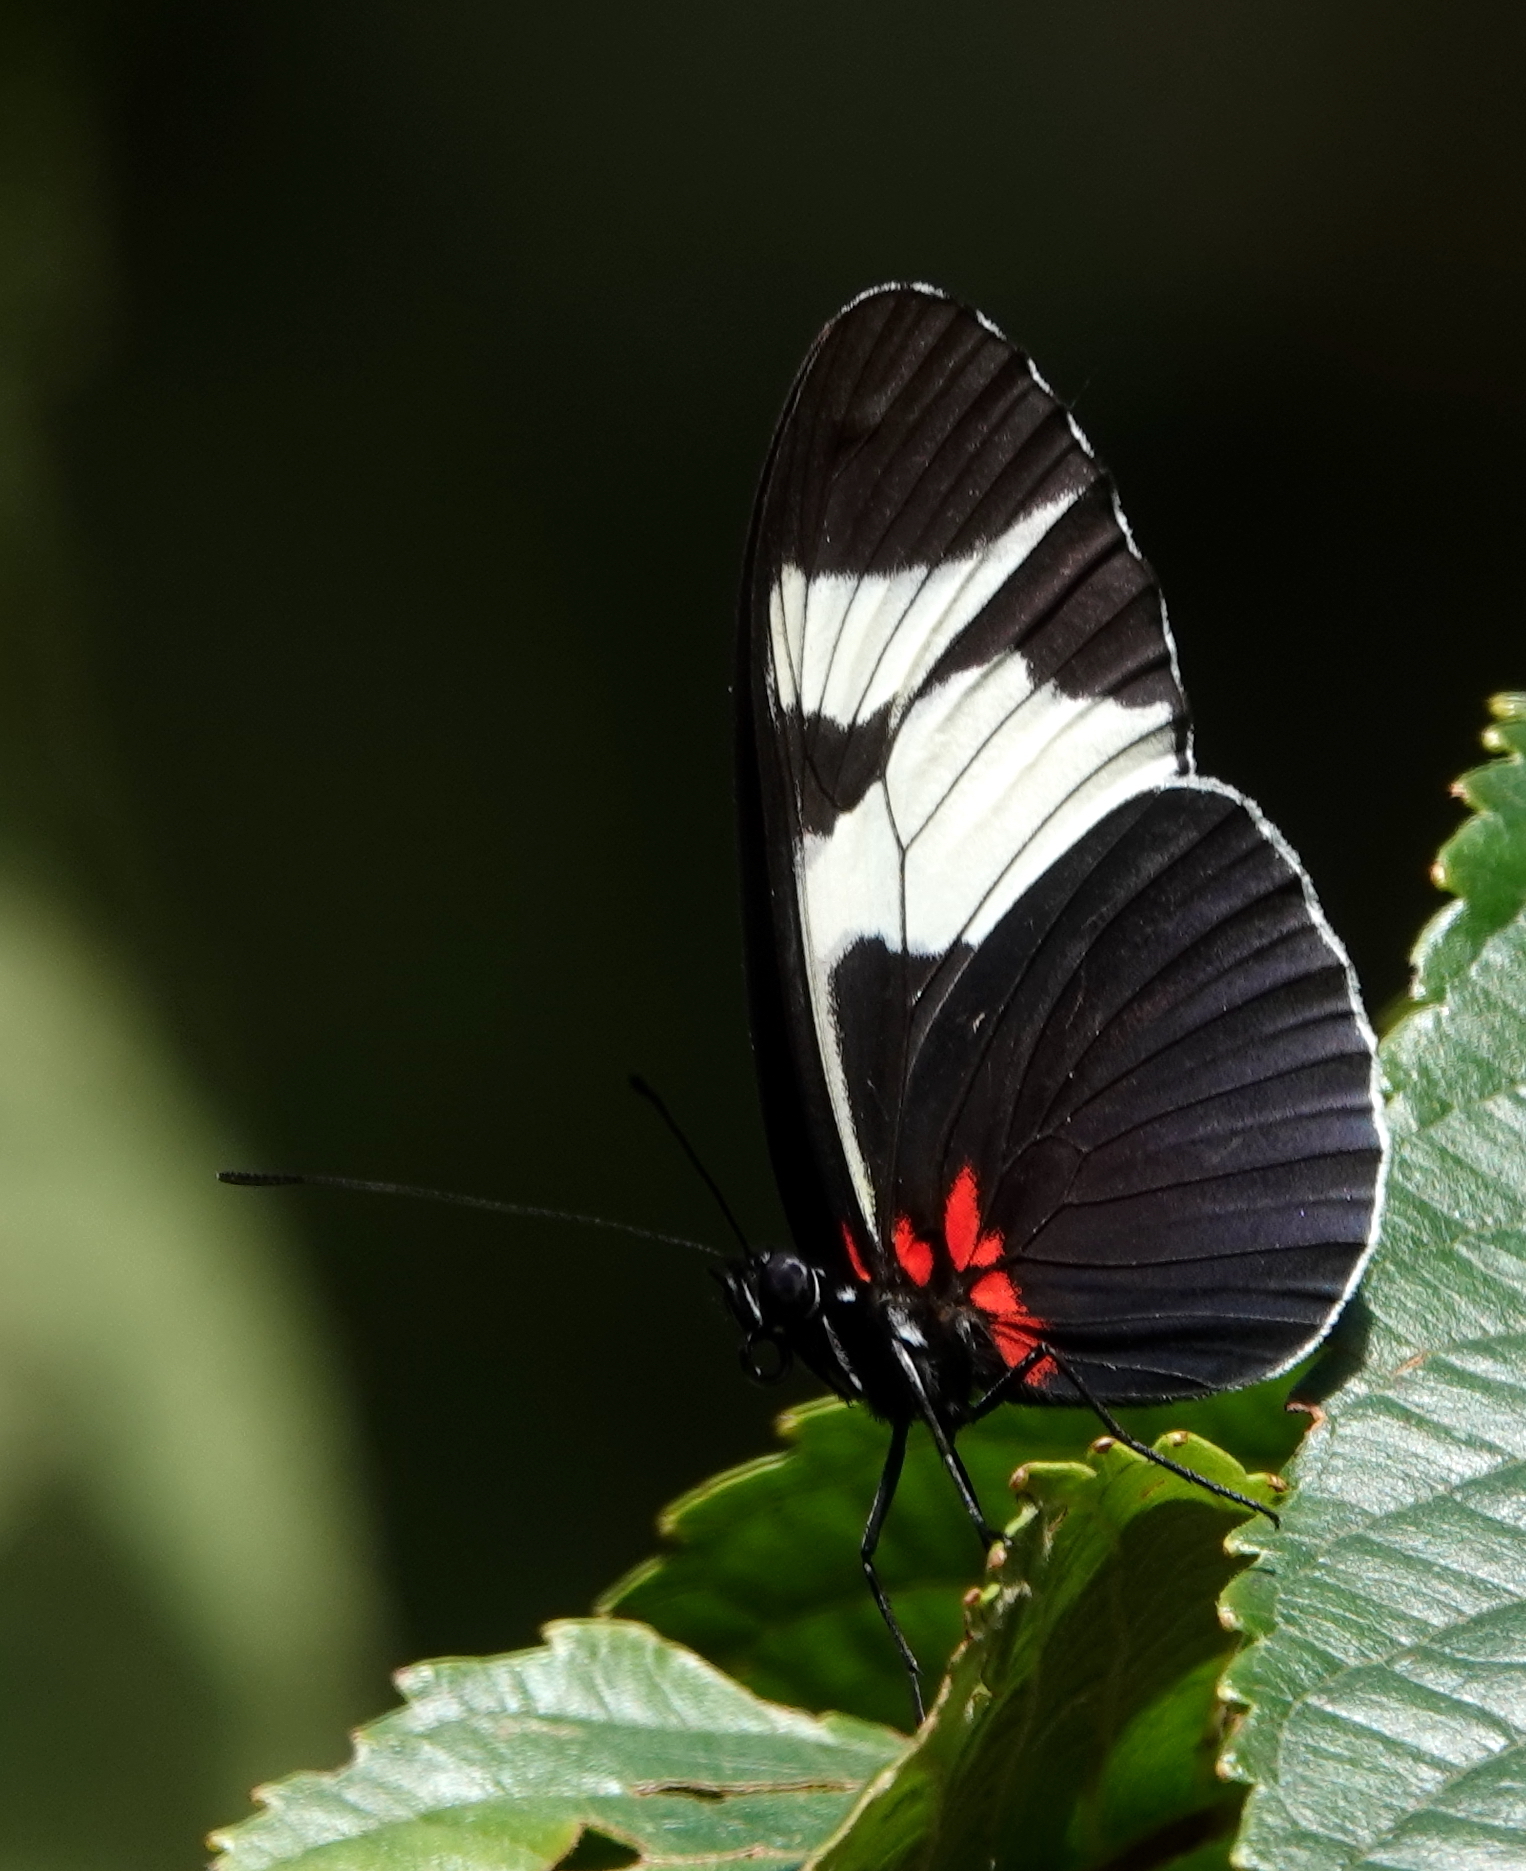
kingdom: Animalia
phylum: Arthropoda
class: Insecta
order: Lepidoptera
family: Nymphalidae
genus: Heliconius
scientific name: Heliconius eleuchia
